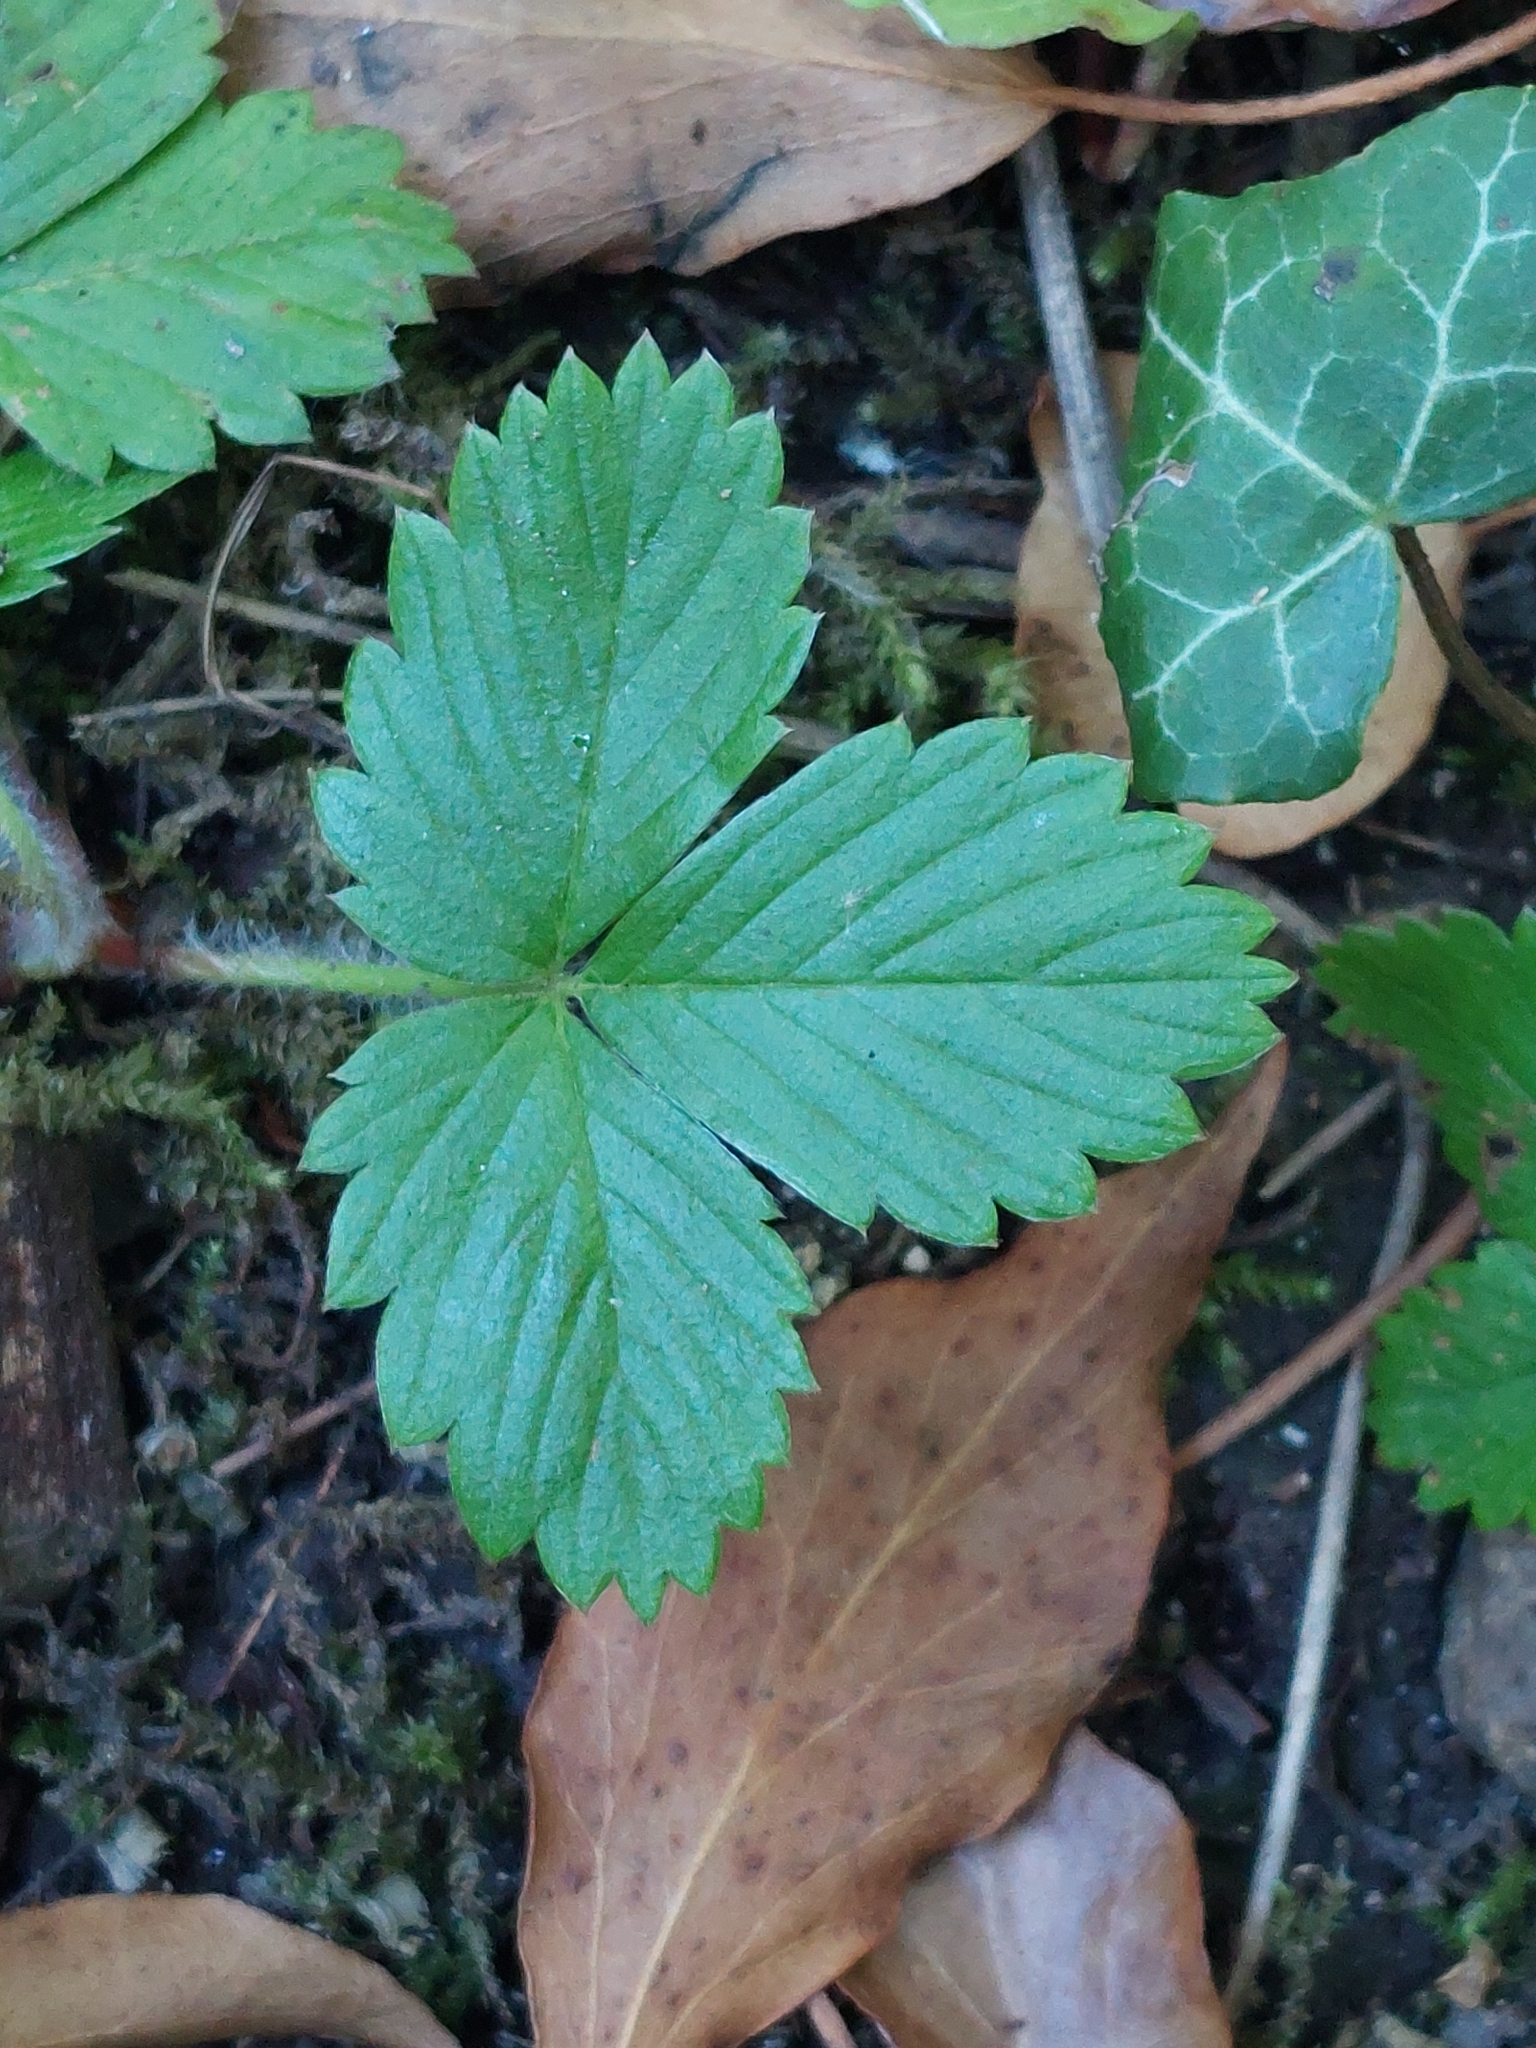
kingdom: Plantae
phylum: Tracheophyta
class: Magnoliopsida
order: Rosales
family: Rosaceae
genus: Fragaria
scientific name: Fragaria vesca
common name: Wild strawberry
